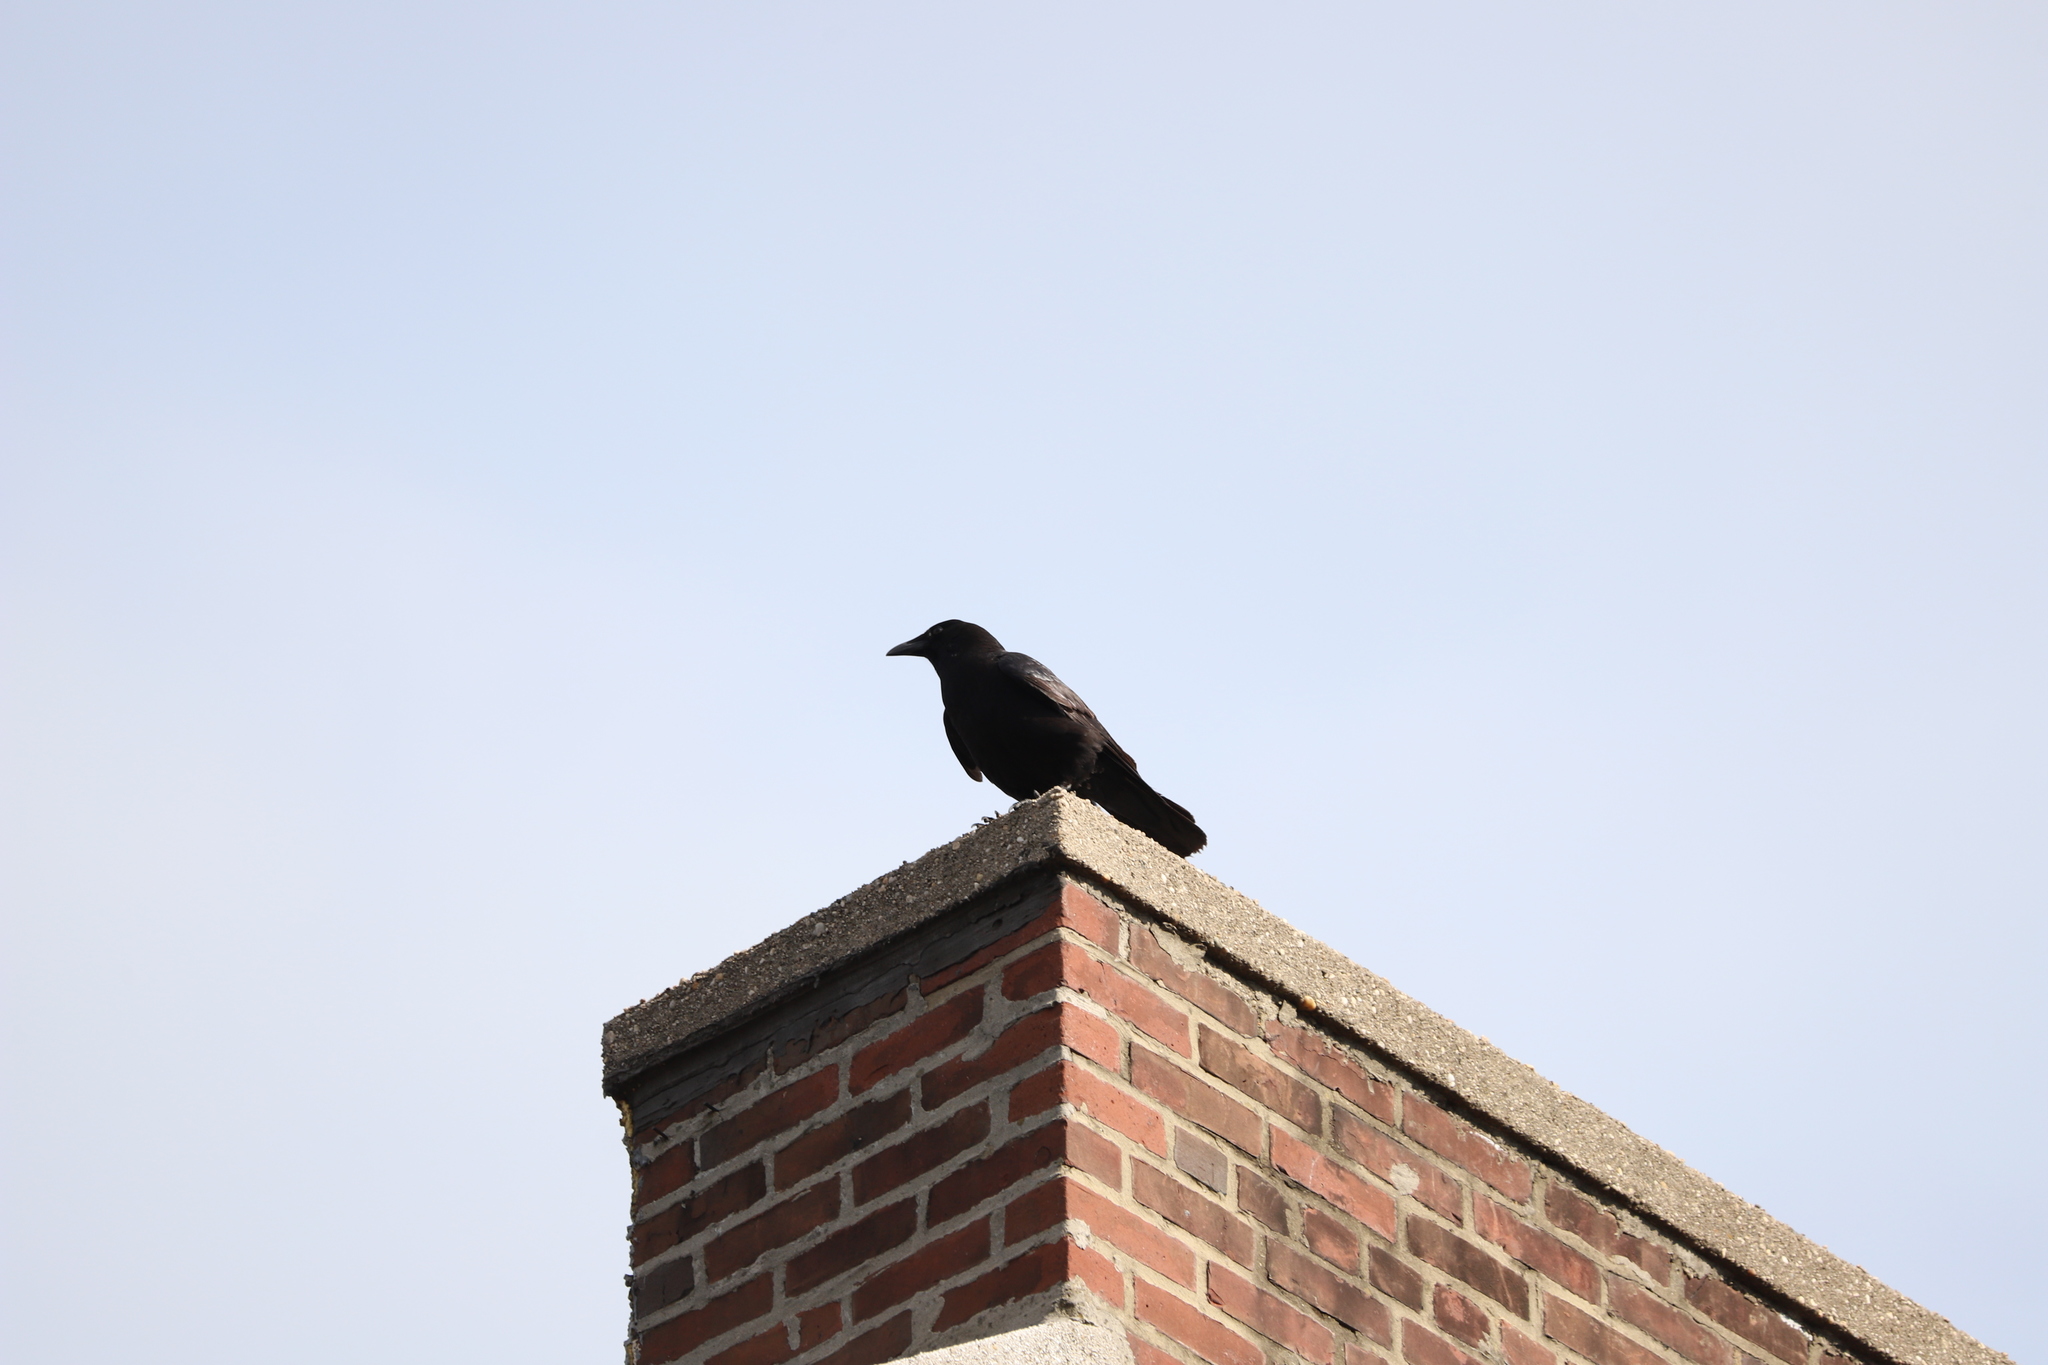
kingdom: Animalia
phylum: Chordata
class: Aves
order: Passeriformes
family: Corvidae
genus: Corvus
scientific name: Corvus
